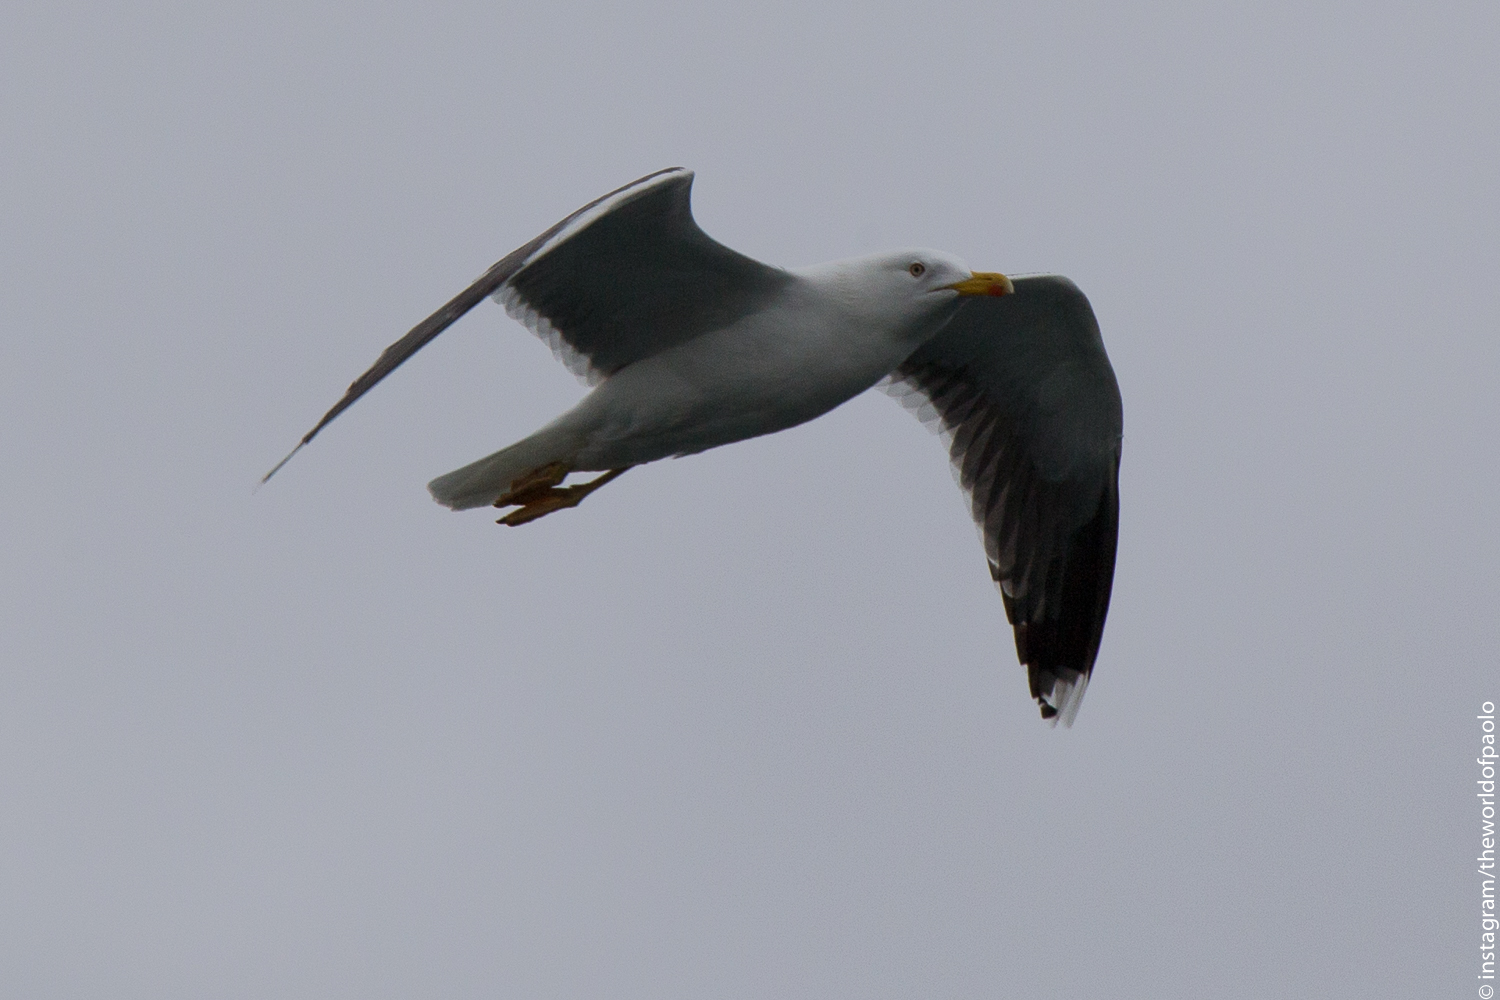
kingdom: Animalia
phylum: Chordata
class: Aves
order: Charadriiformes
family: Laridae
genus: Larus
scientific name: Larus fuscus
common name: Lesser black-backed gull
